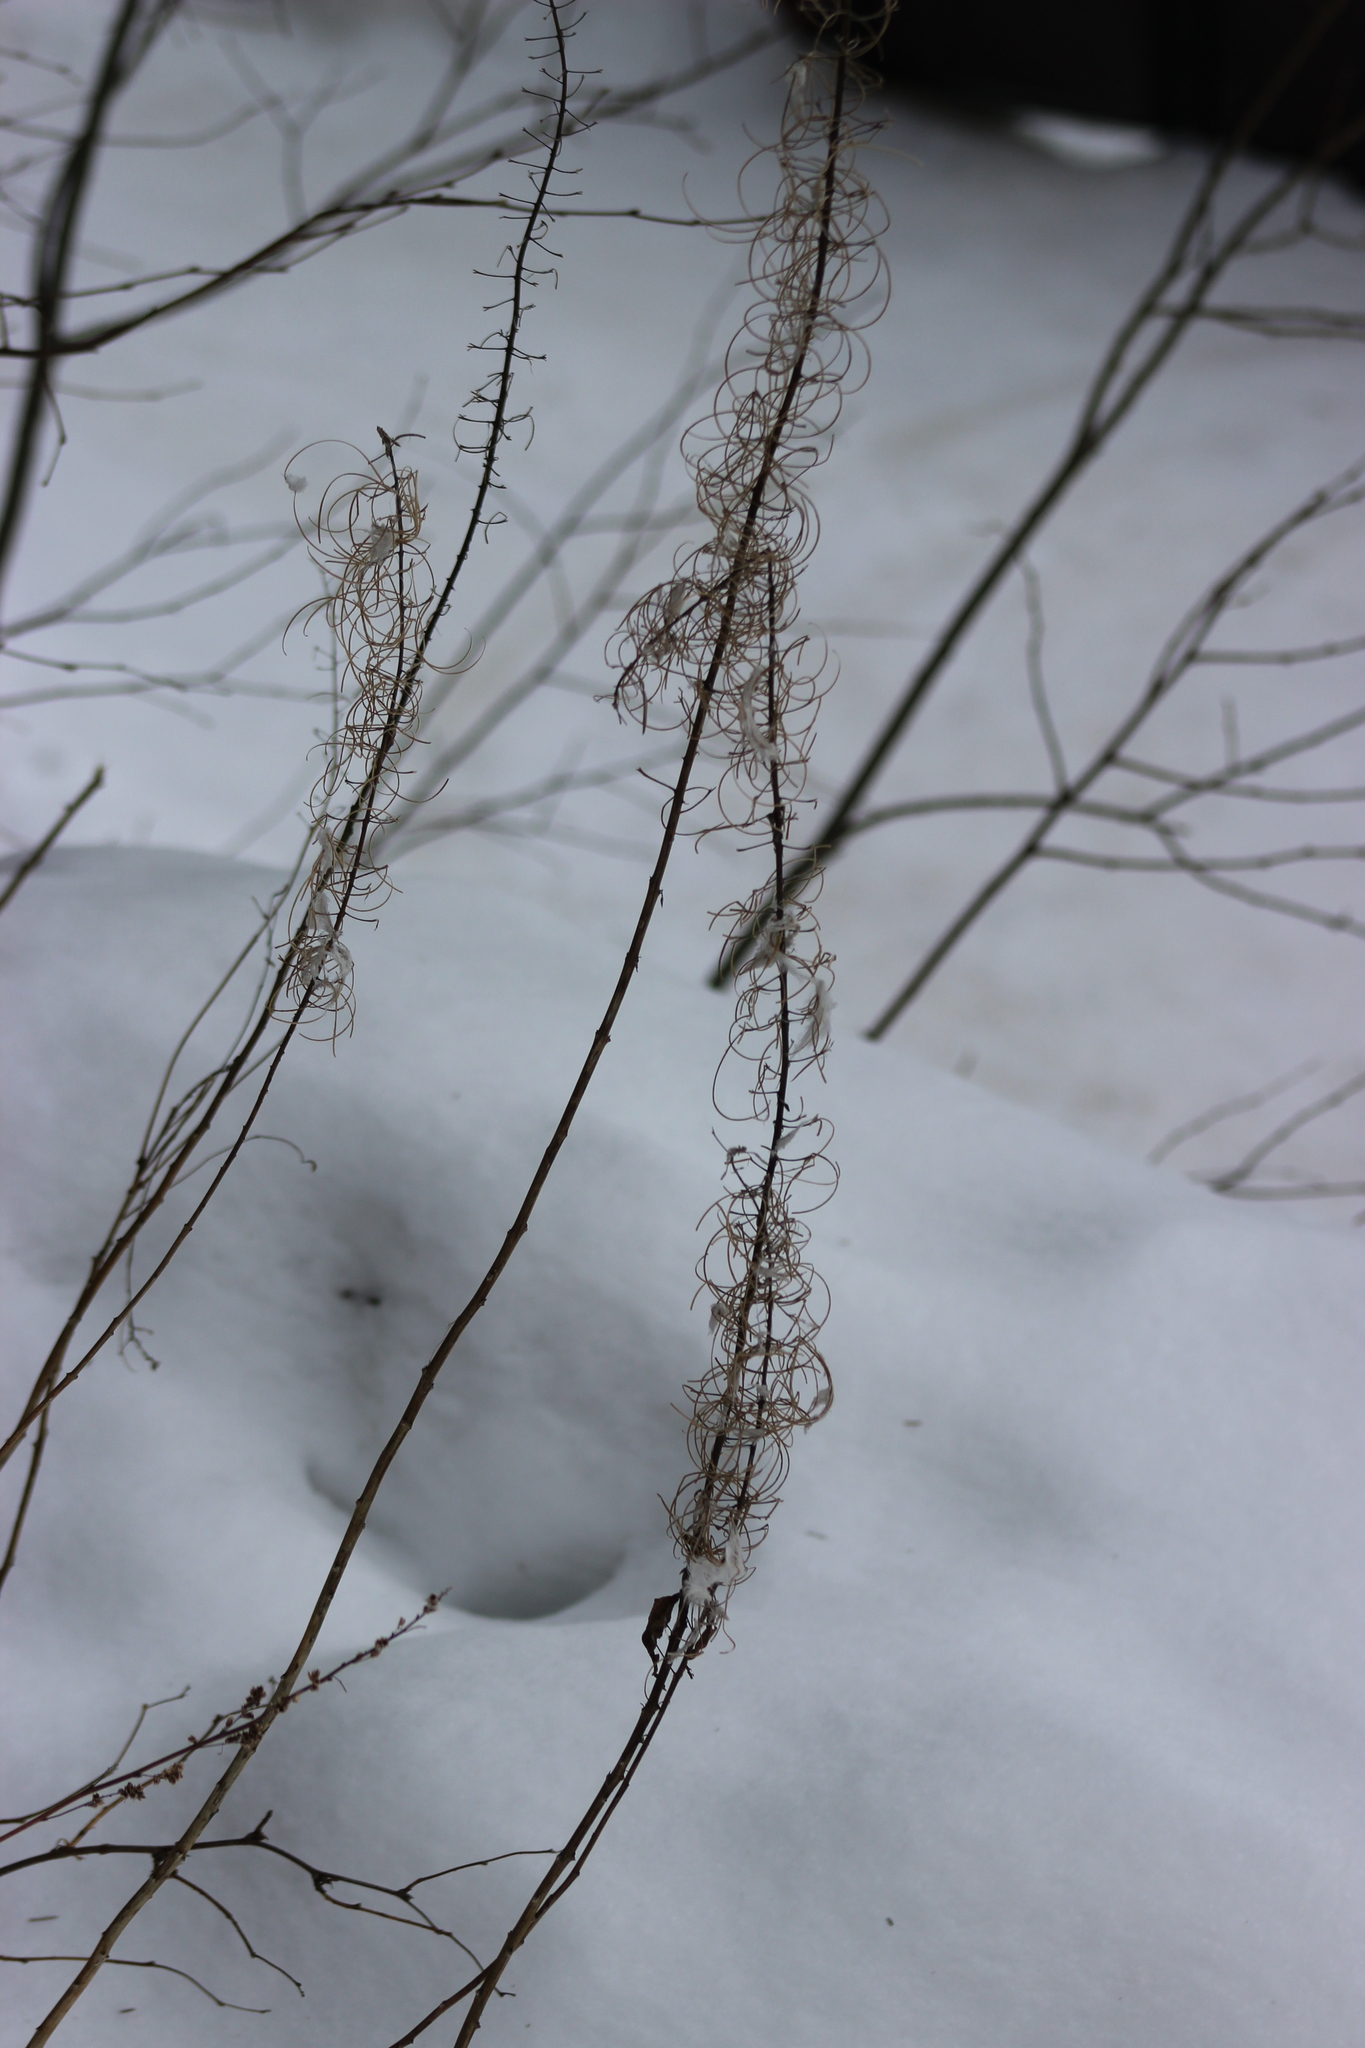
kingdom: Plantae
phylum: Tracheophyta
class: Magnoliopsida
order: Myrtales
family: Onagraceae
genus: Chamaenerion
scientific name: Chamaenerion angustifolium
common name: Fireweed
